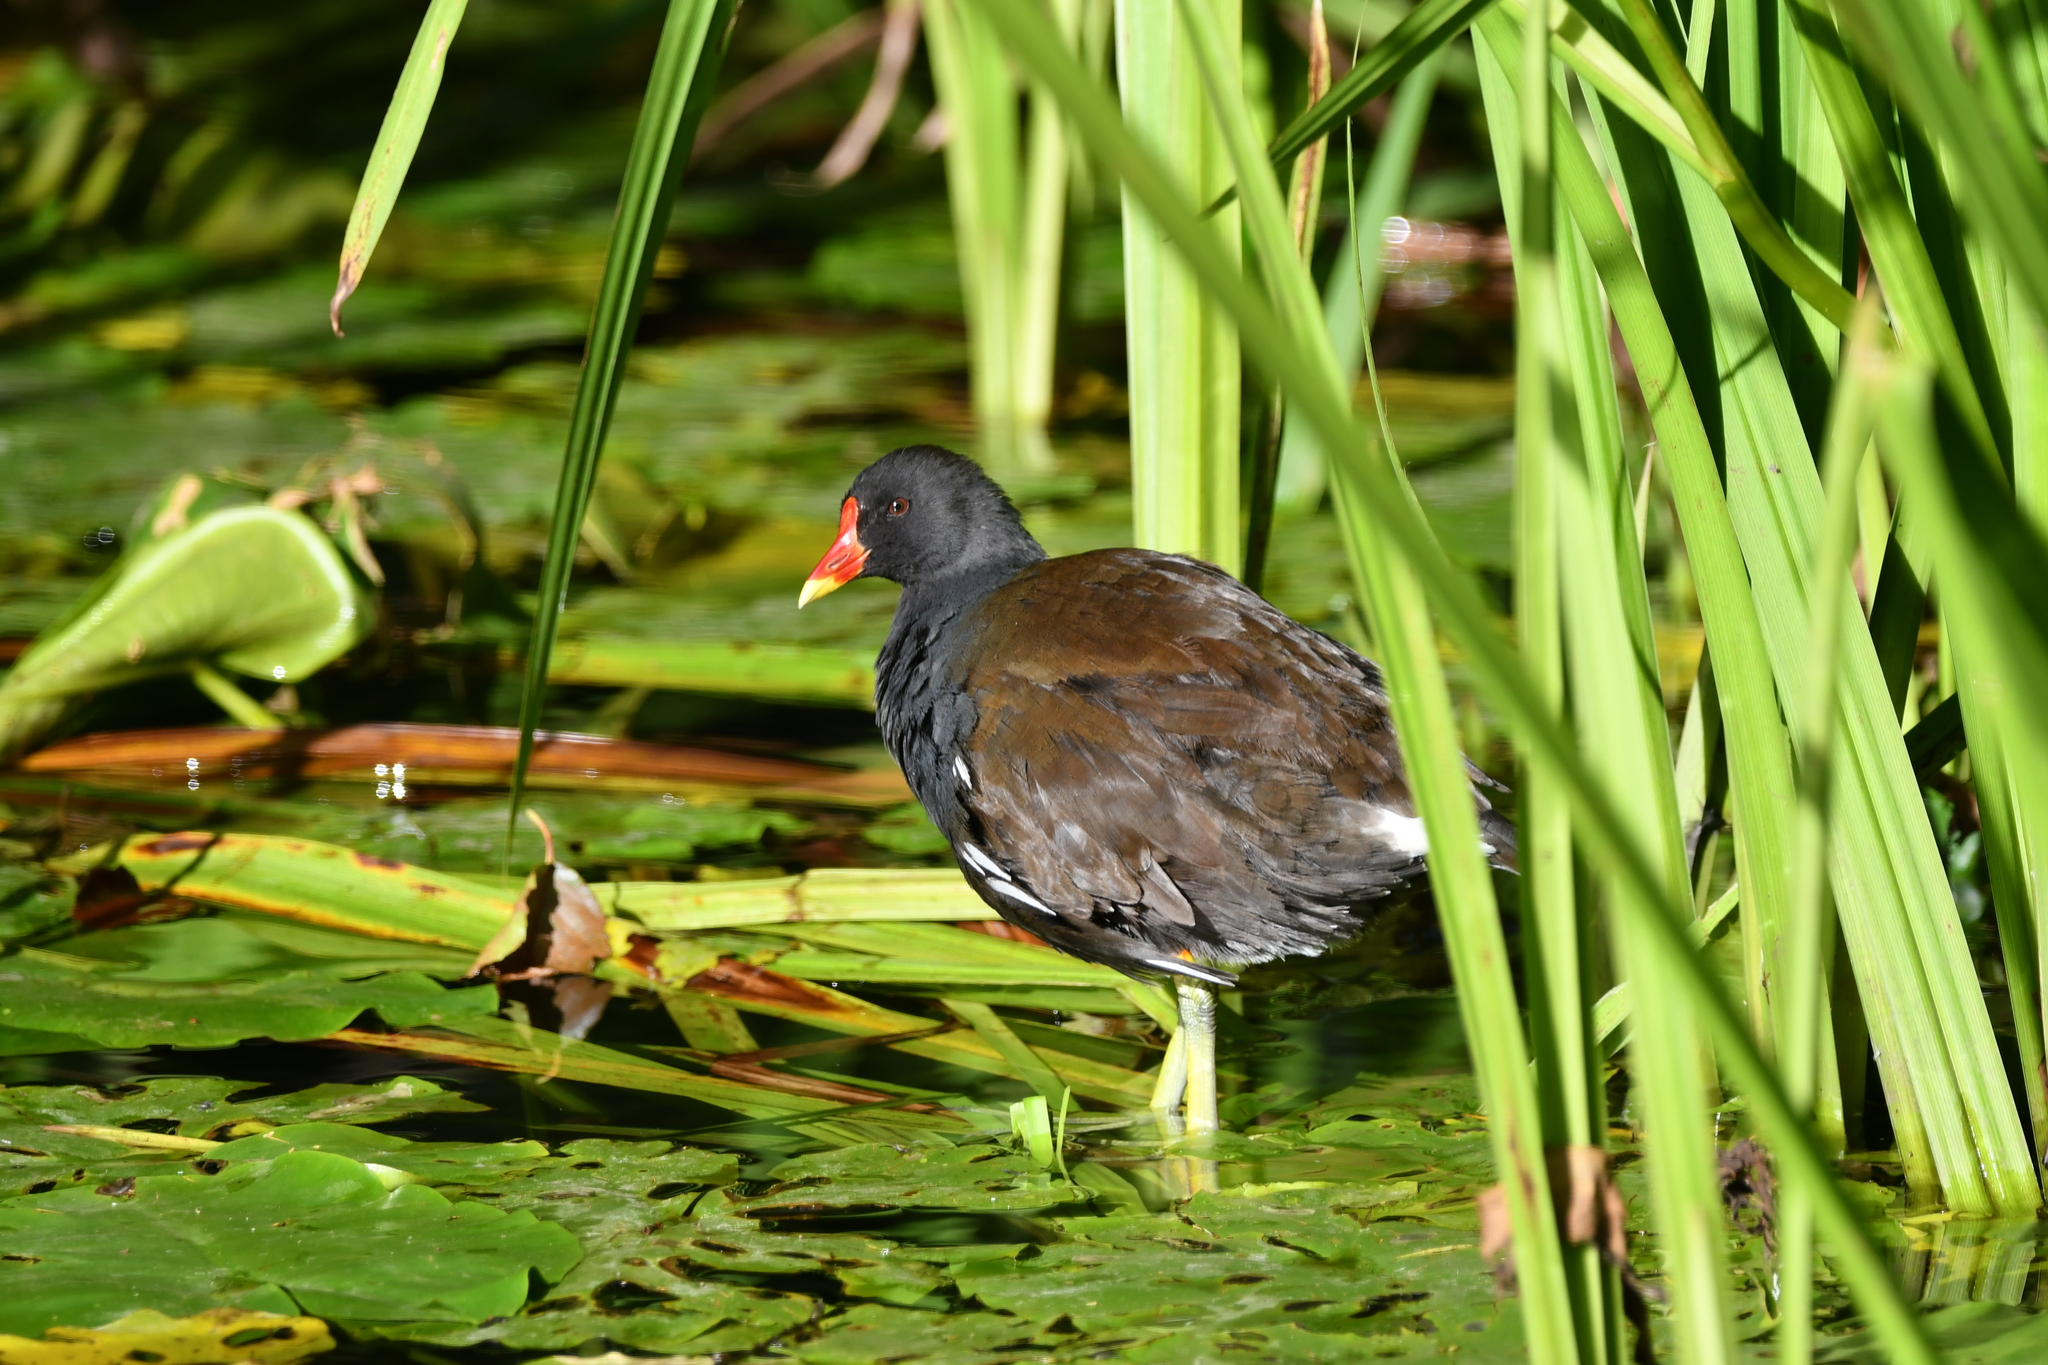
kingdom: Animalia
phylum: Chordata
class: Aves
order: Gruiformes
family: Rallidae
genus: Gallinula
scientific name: Gallinula chloropus
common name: Common moorhen
